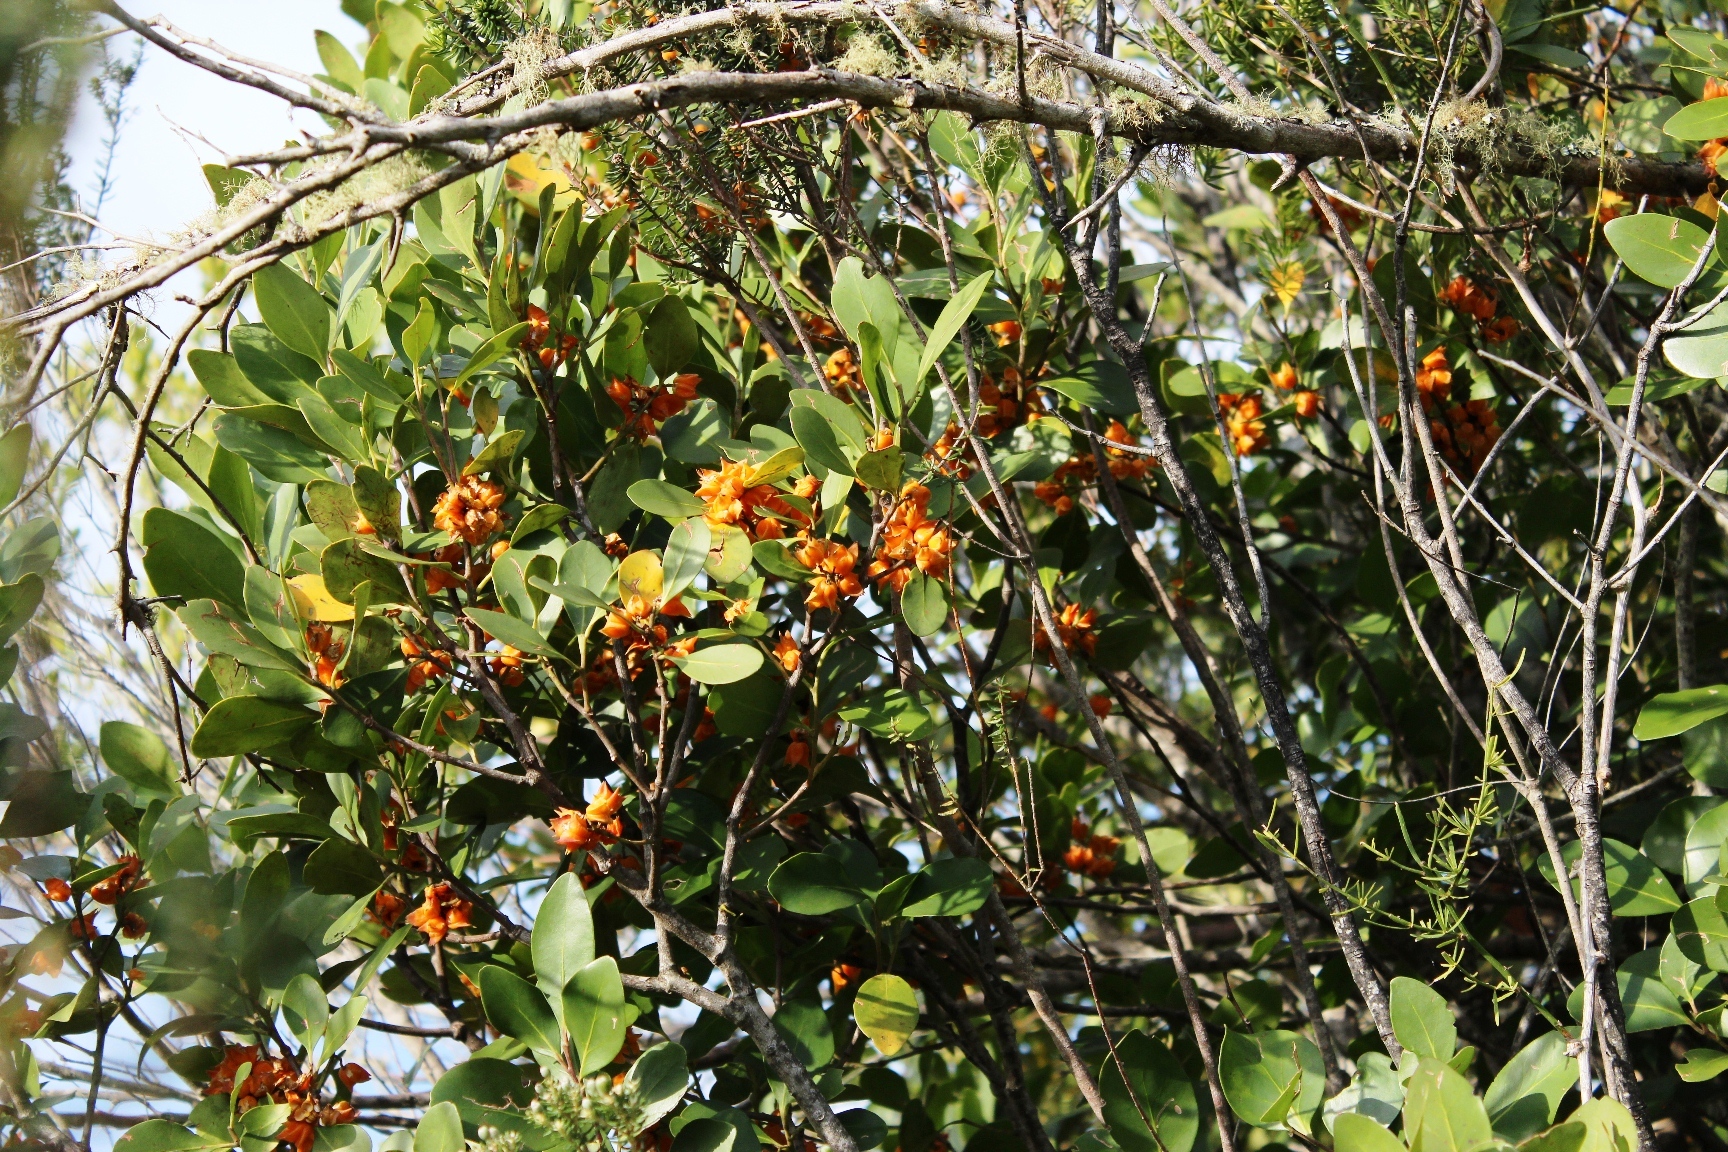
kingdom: Plantae
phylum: Tracheophyta
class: Magnoliopsida
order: Celastrales
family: Celastraceae
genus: Pterocelastrus
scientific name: Pterocelastrus tricuspidatus
